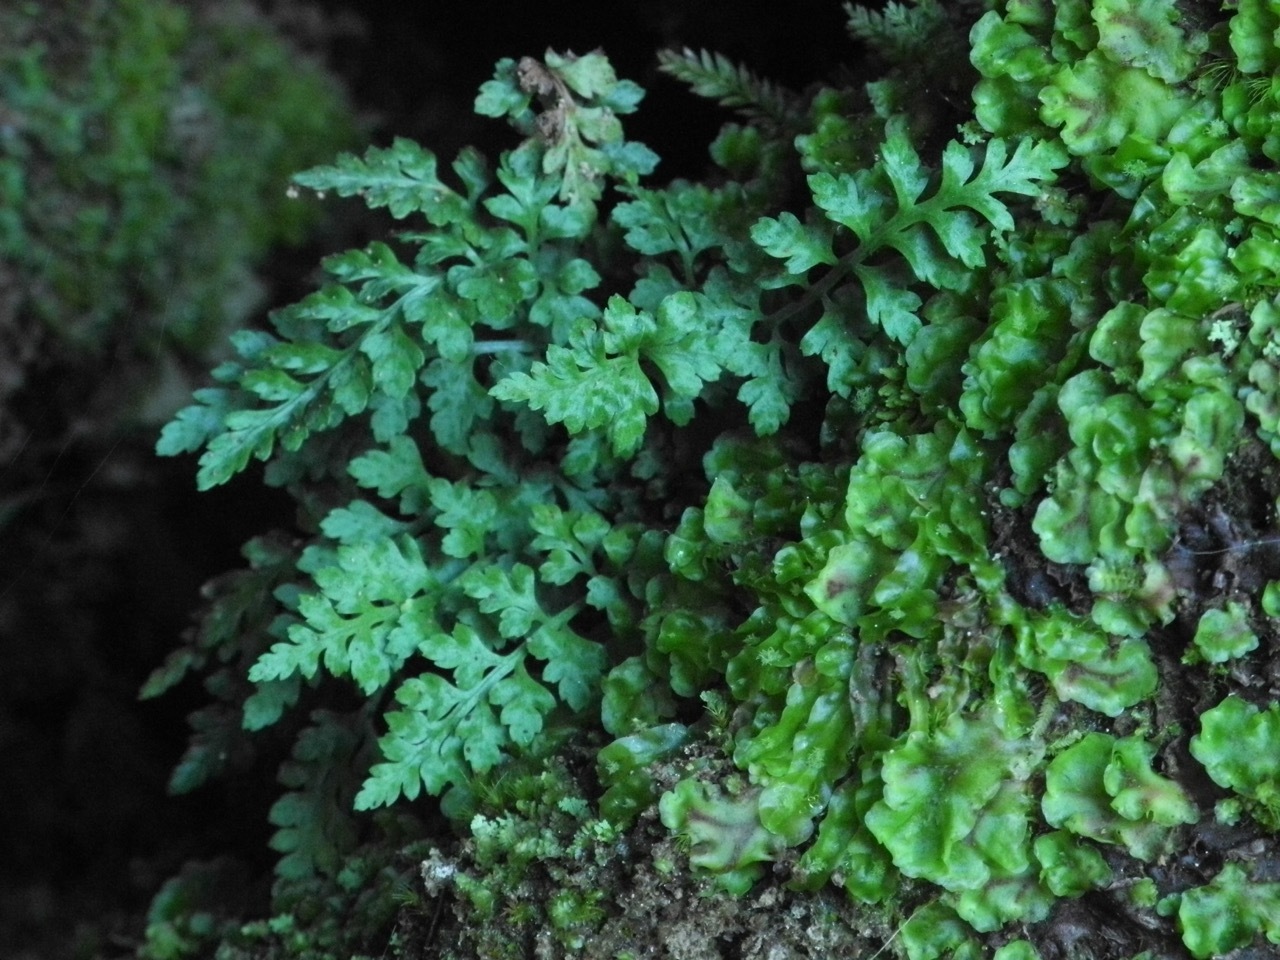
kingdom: Plantae
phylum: Tracheophyta
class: Polypodiopsida
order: Polypodiales
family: Aspleniaceae
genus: Asplenium
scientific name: Asplenium montanum
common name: Mountain spleenwort
